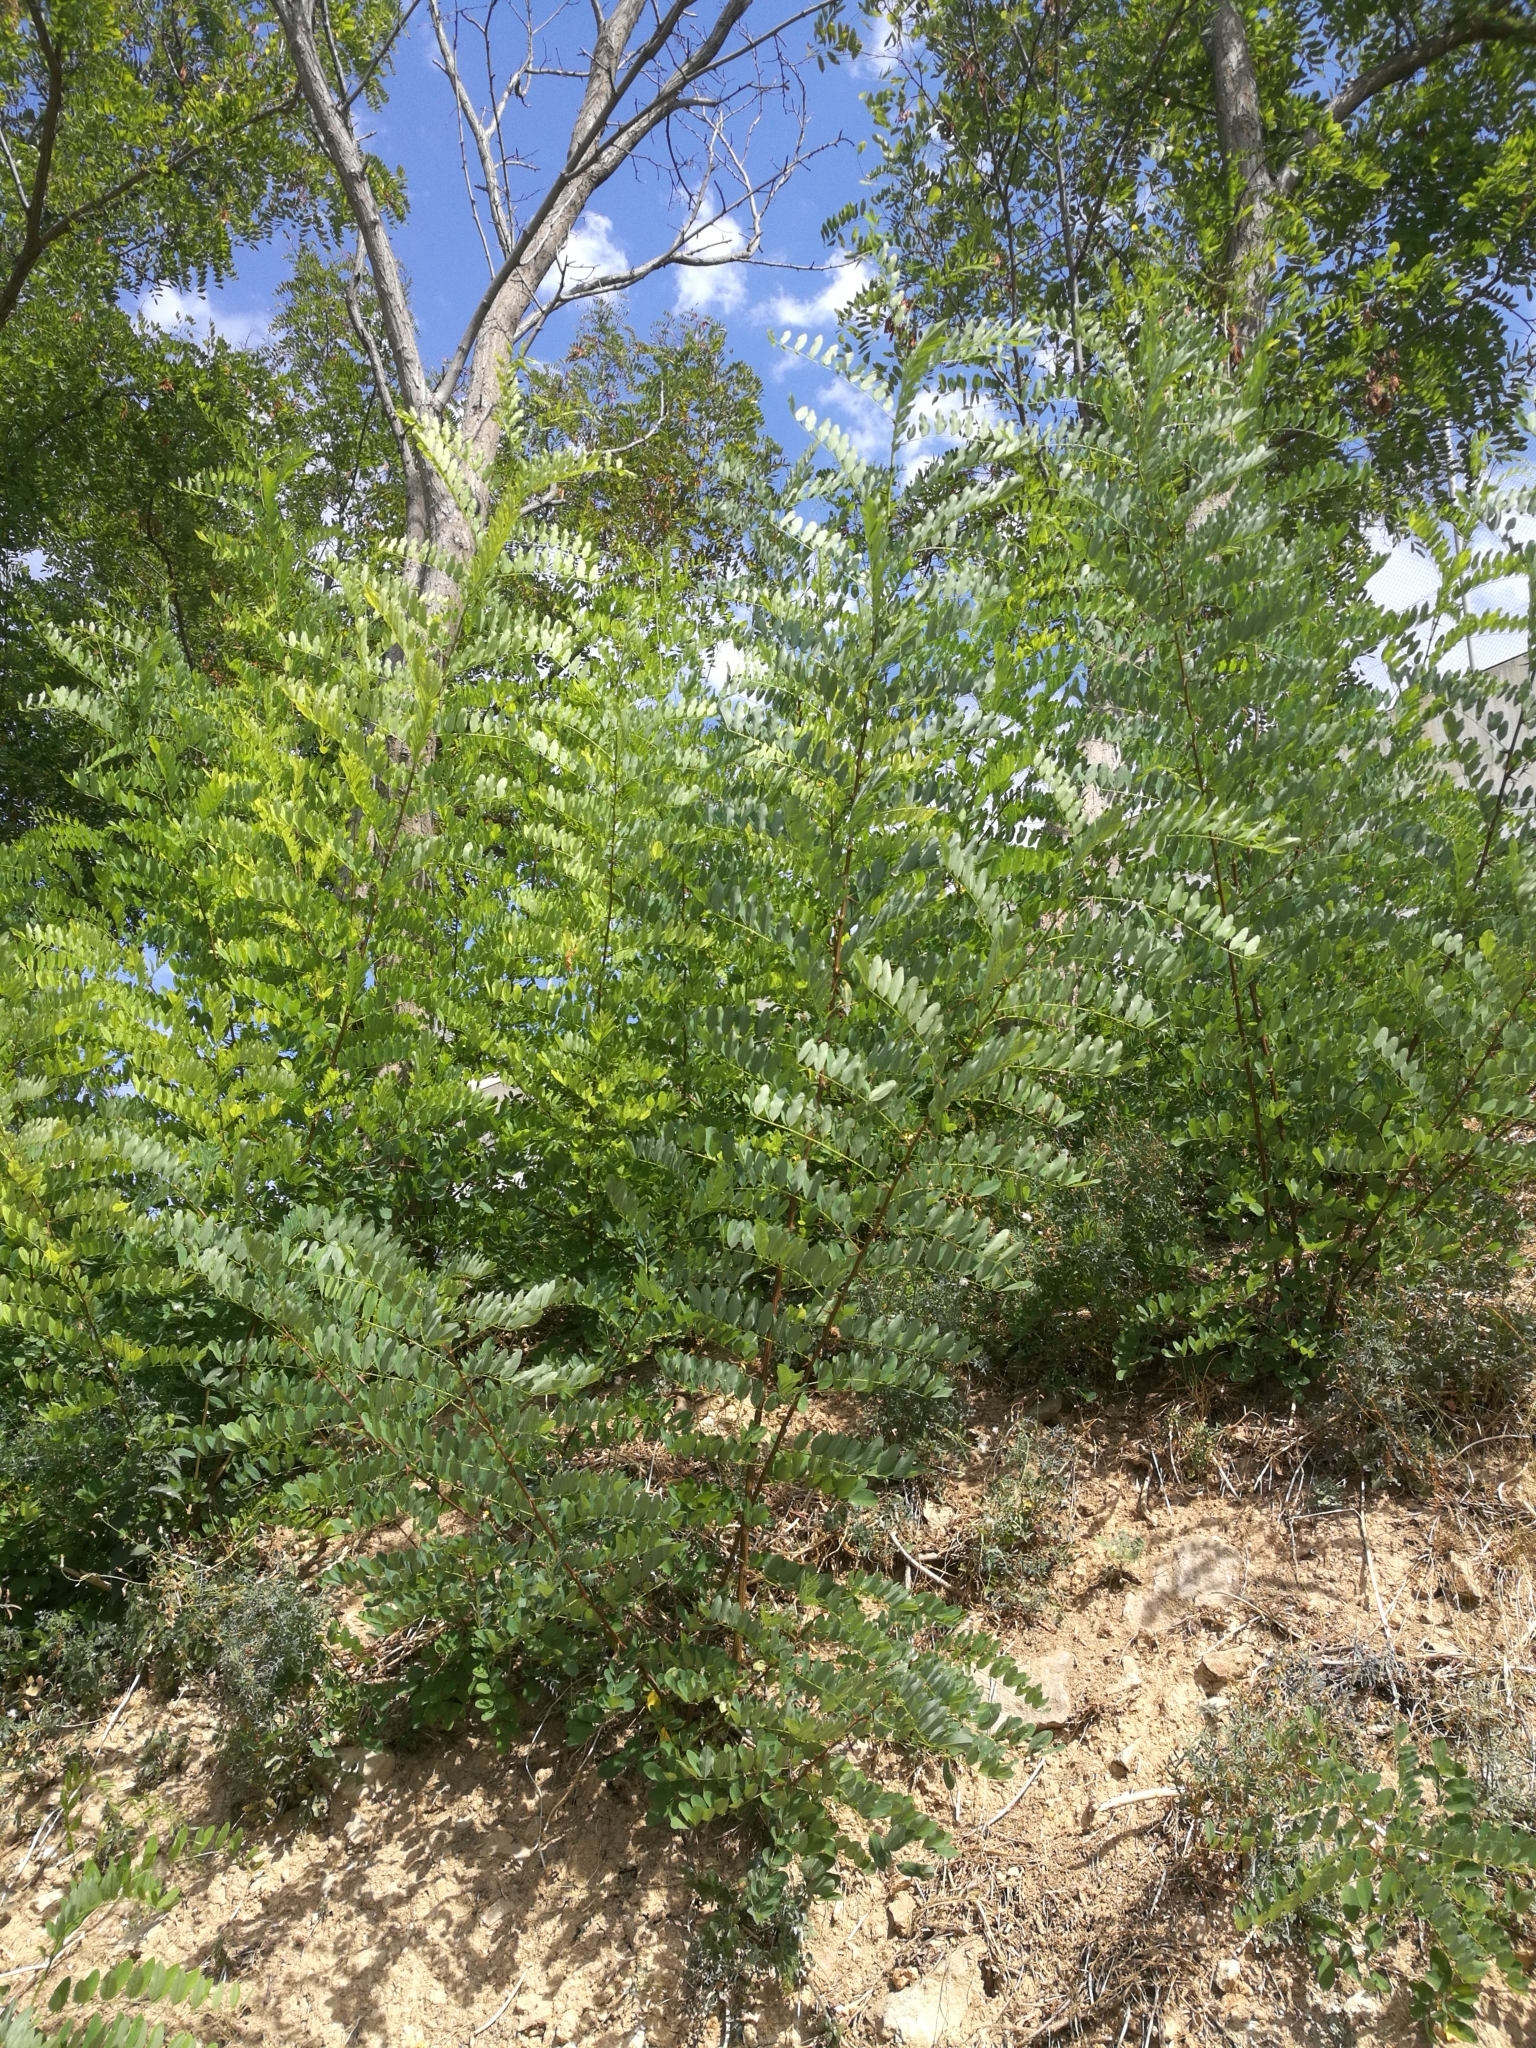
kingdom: Plantae
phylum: Tracheophyta
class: Magnoliopsida
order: Fabales
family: Fabaceae
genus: Robinia
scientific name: Robinia pseudoacacia
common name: Black locust
